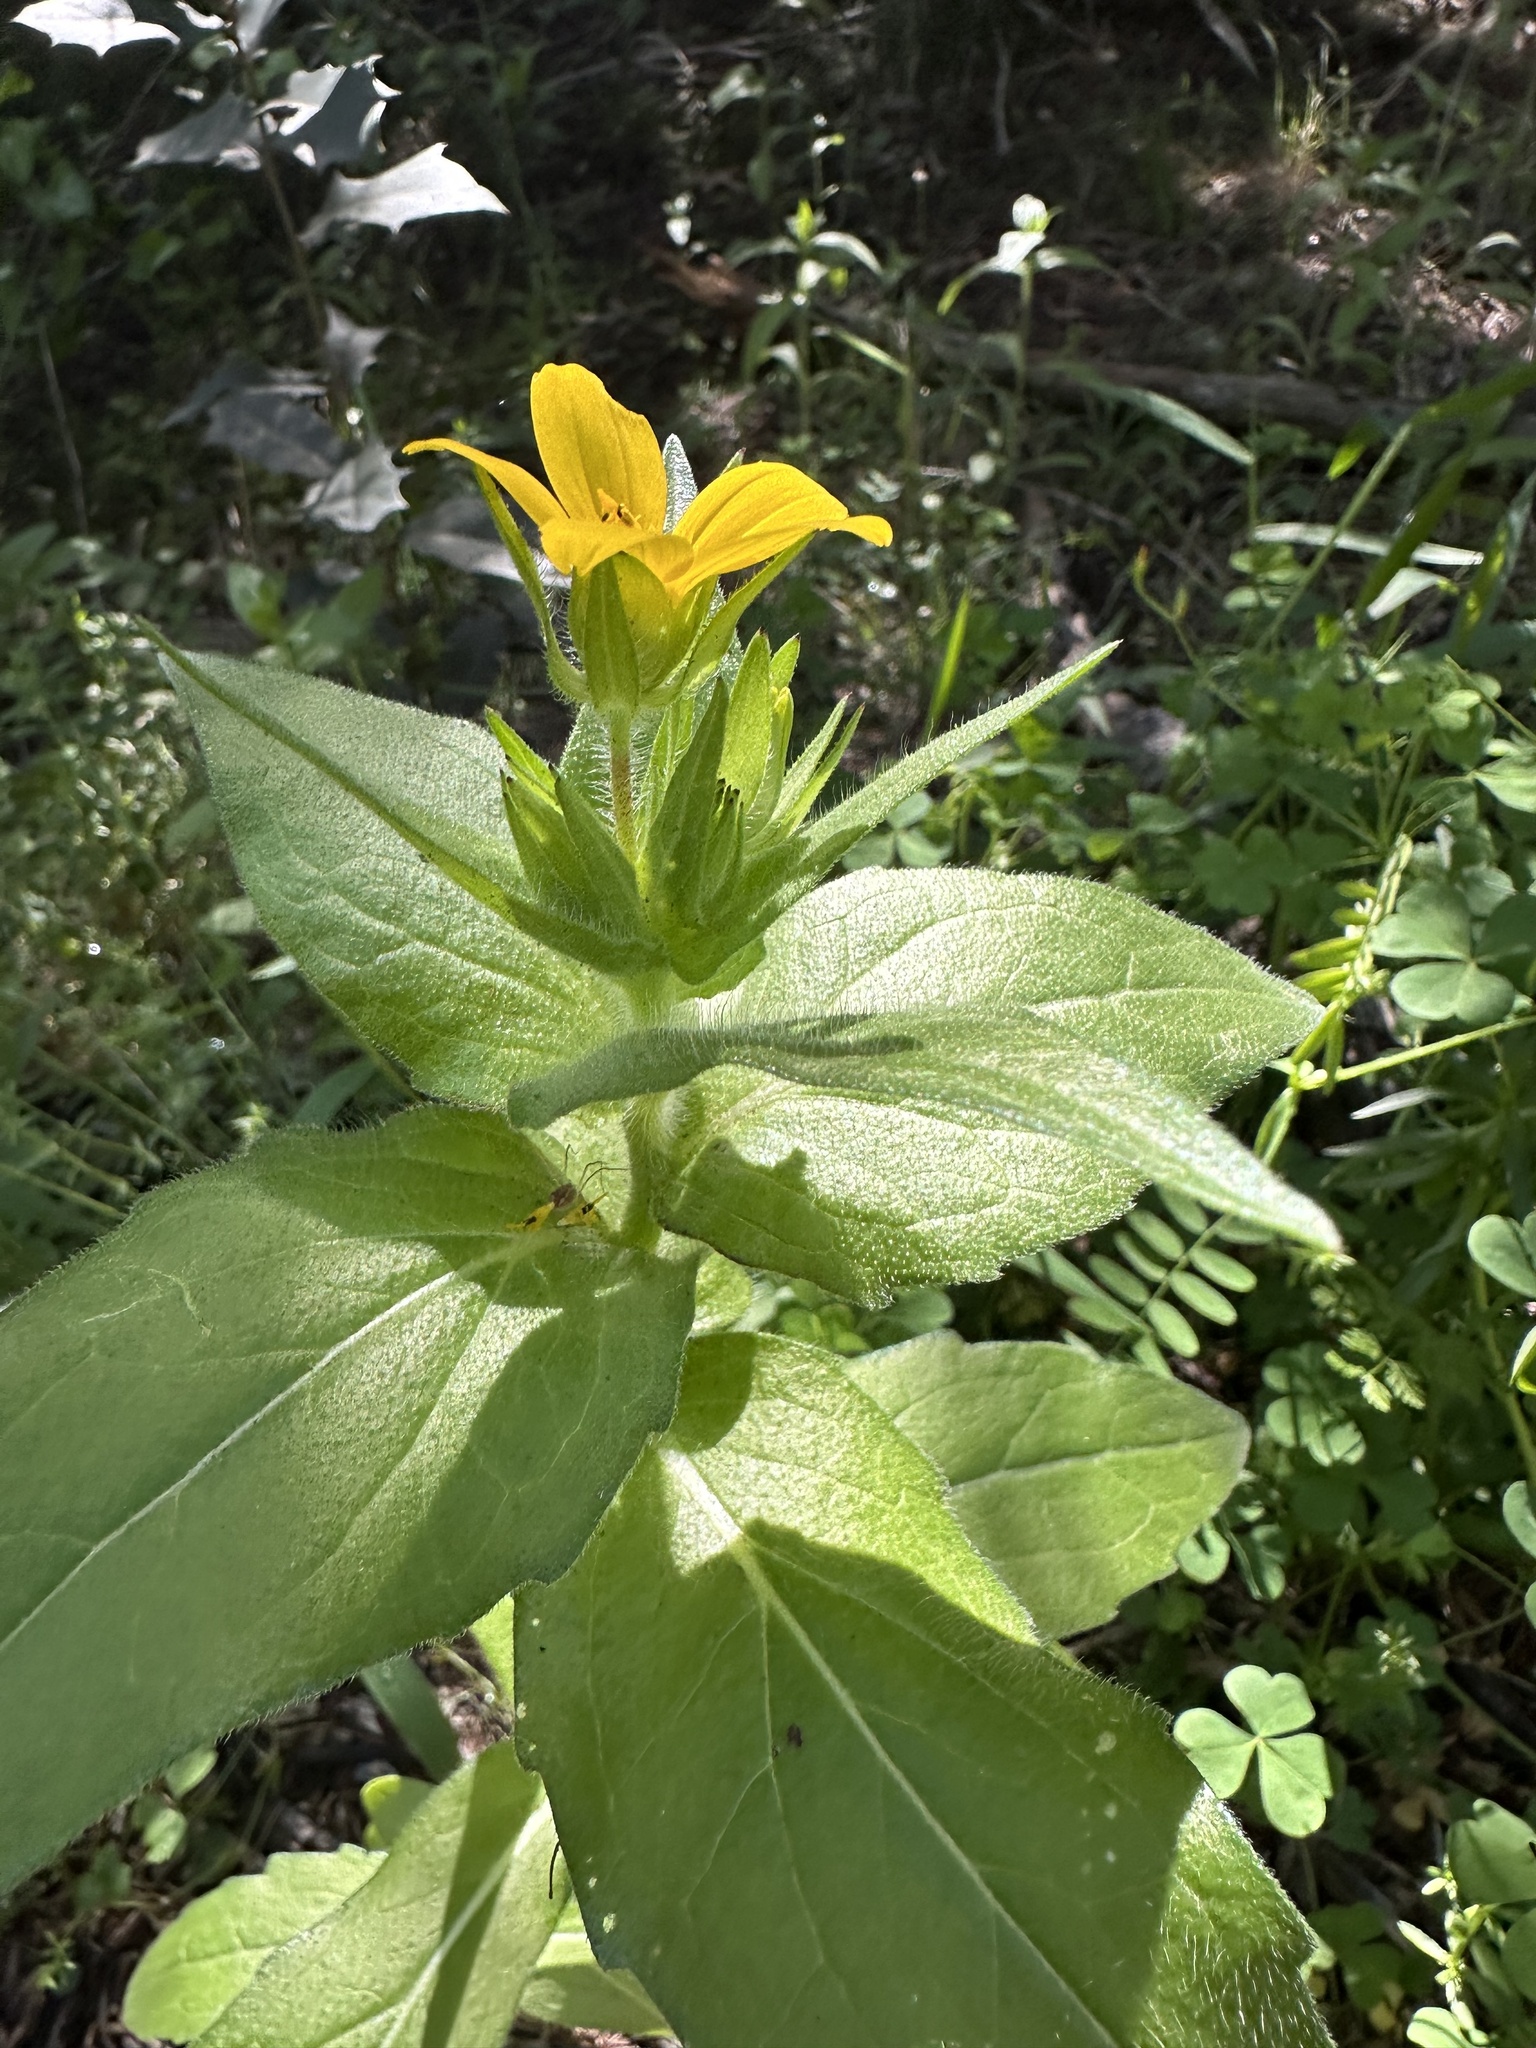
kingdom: Plantae
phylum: Tracheophyta
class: Magnoliopsida
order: Asterales
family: Asteraceae
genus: Lindheimera
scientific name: Lindheimera texana
